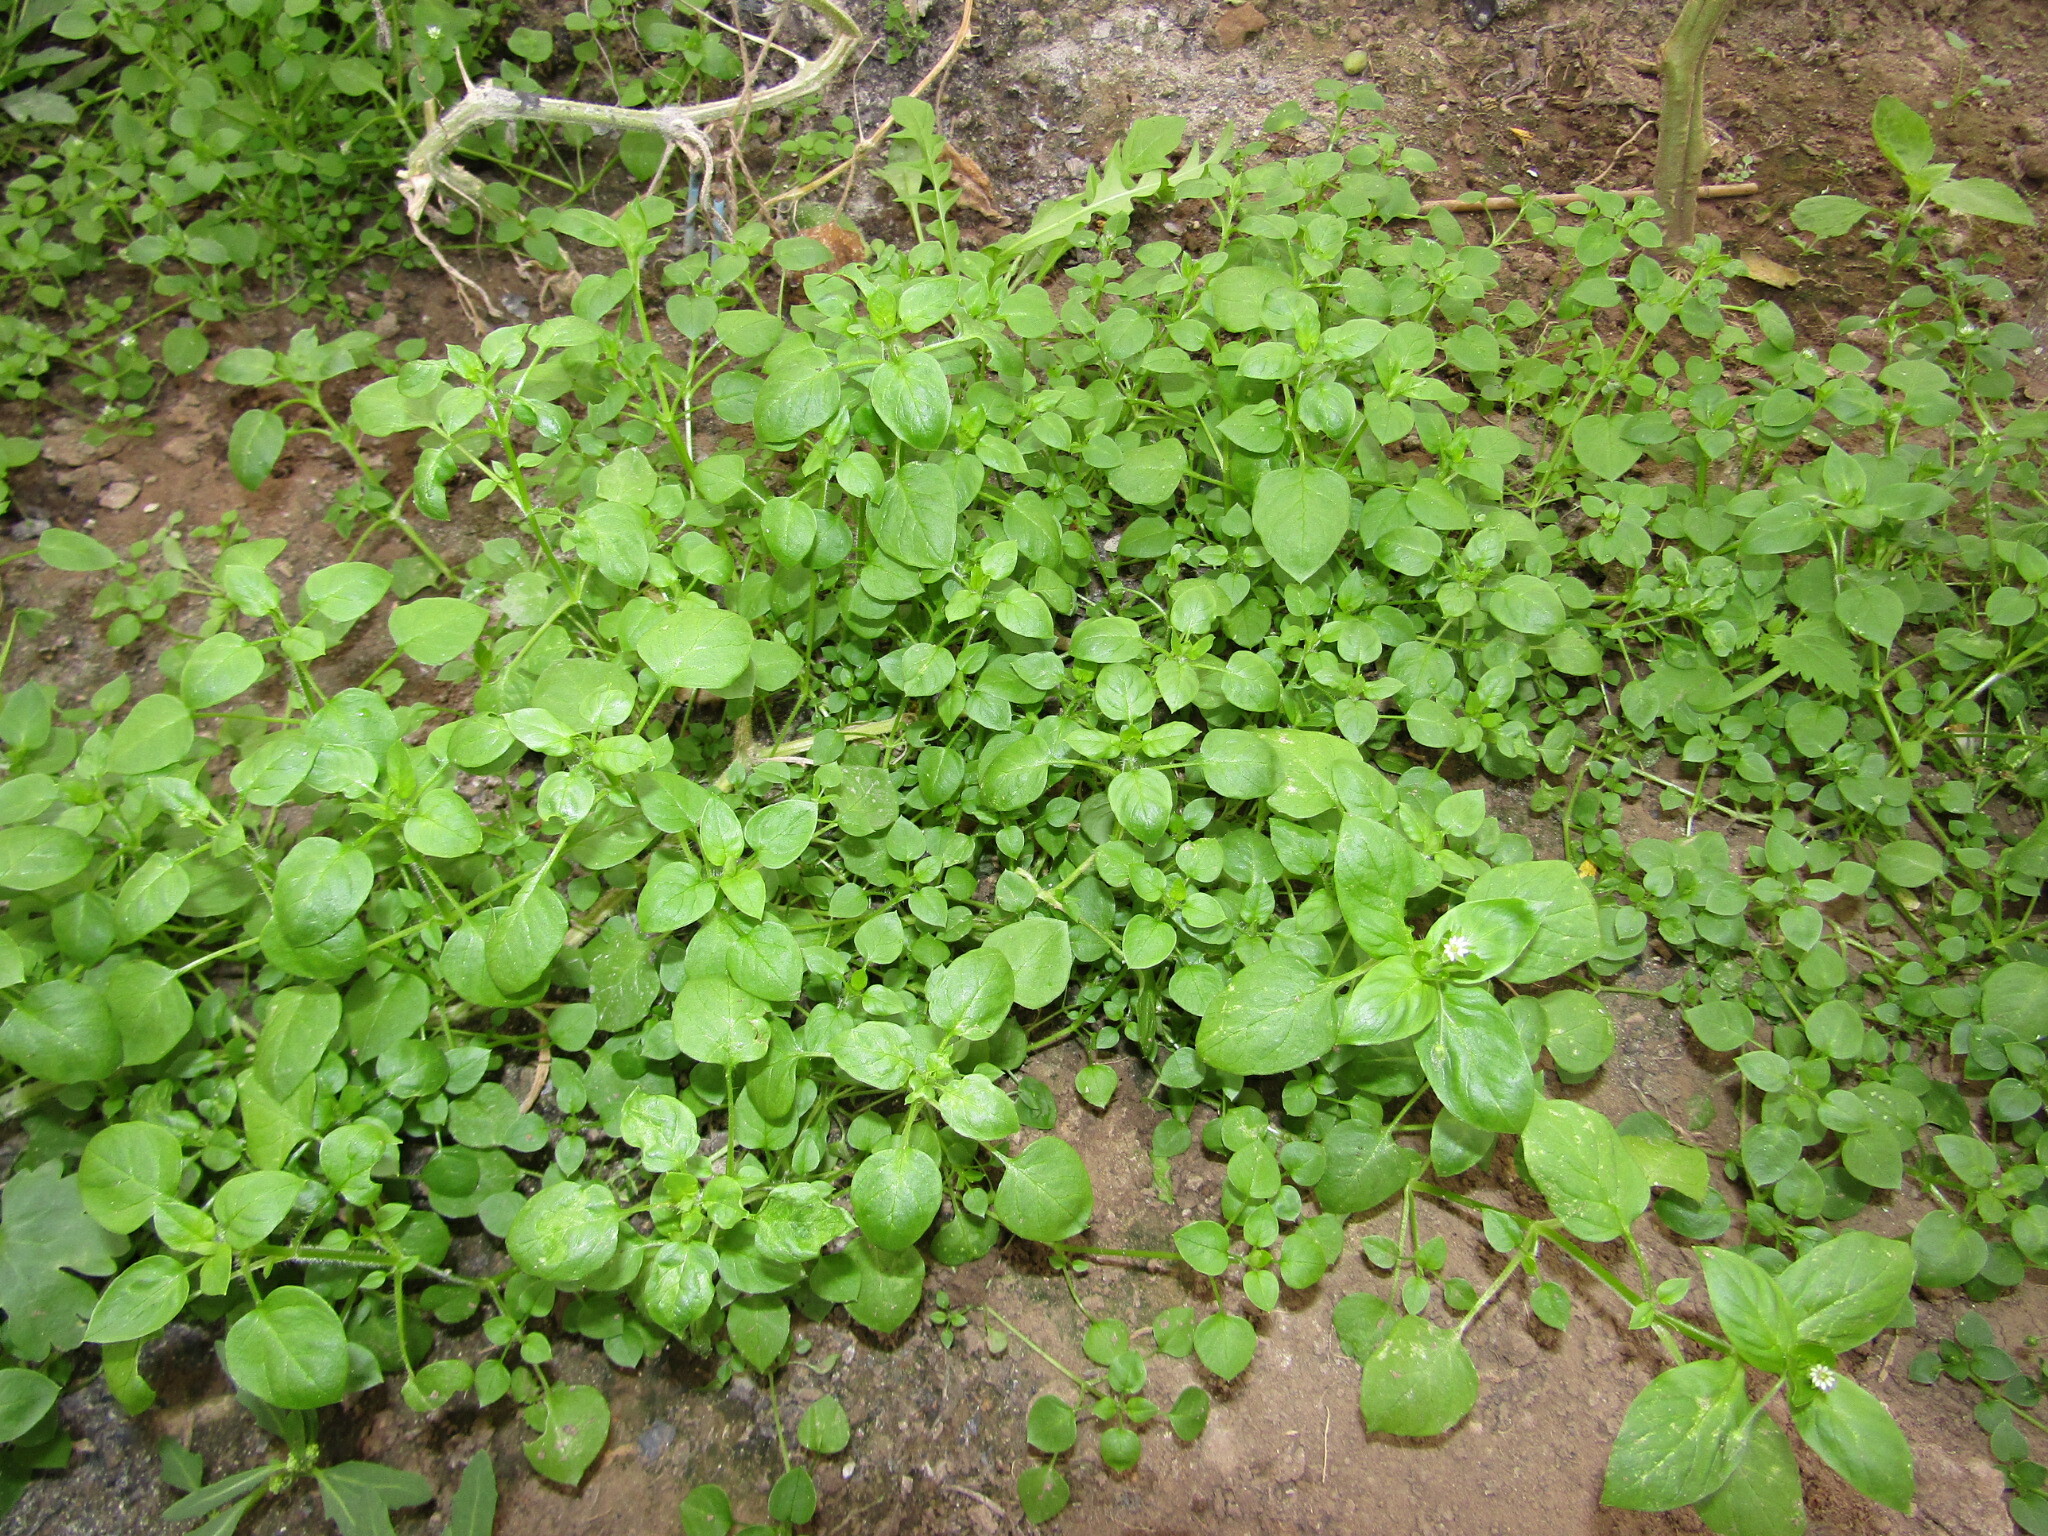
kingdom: Plantae
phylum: Tracheophyta
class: Magnoliopsida
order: Caryophyllales
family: Caryophyllaceae
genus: Stellaria
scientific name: Stellaria media
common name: Common chickweed
